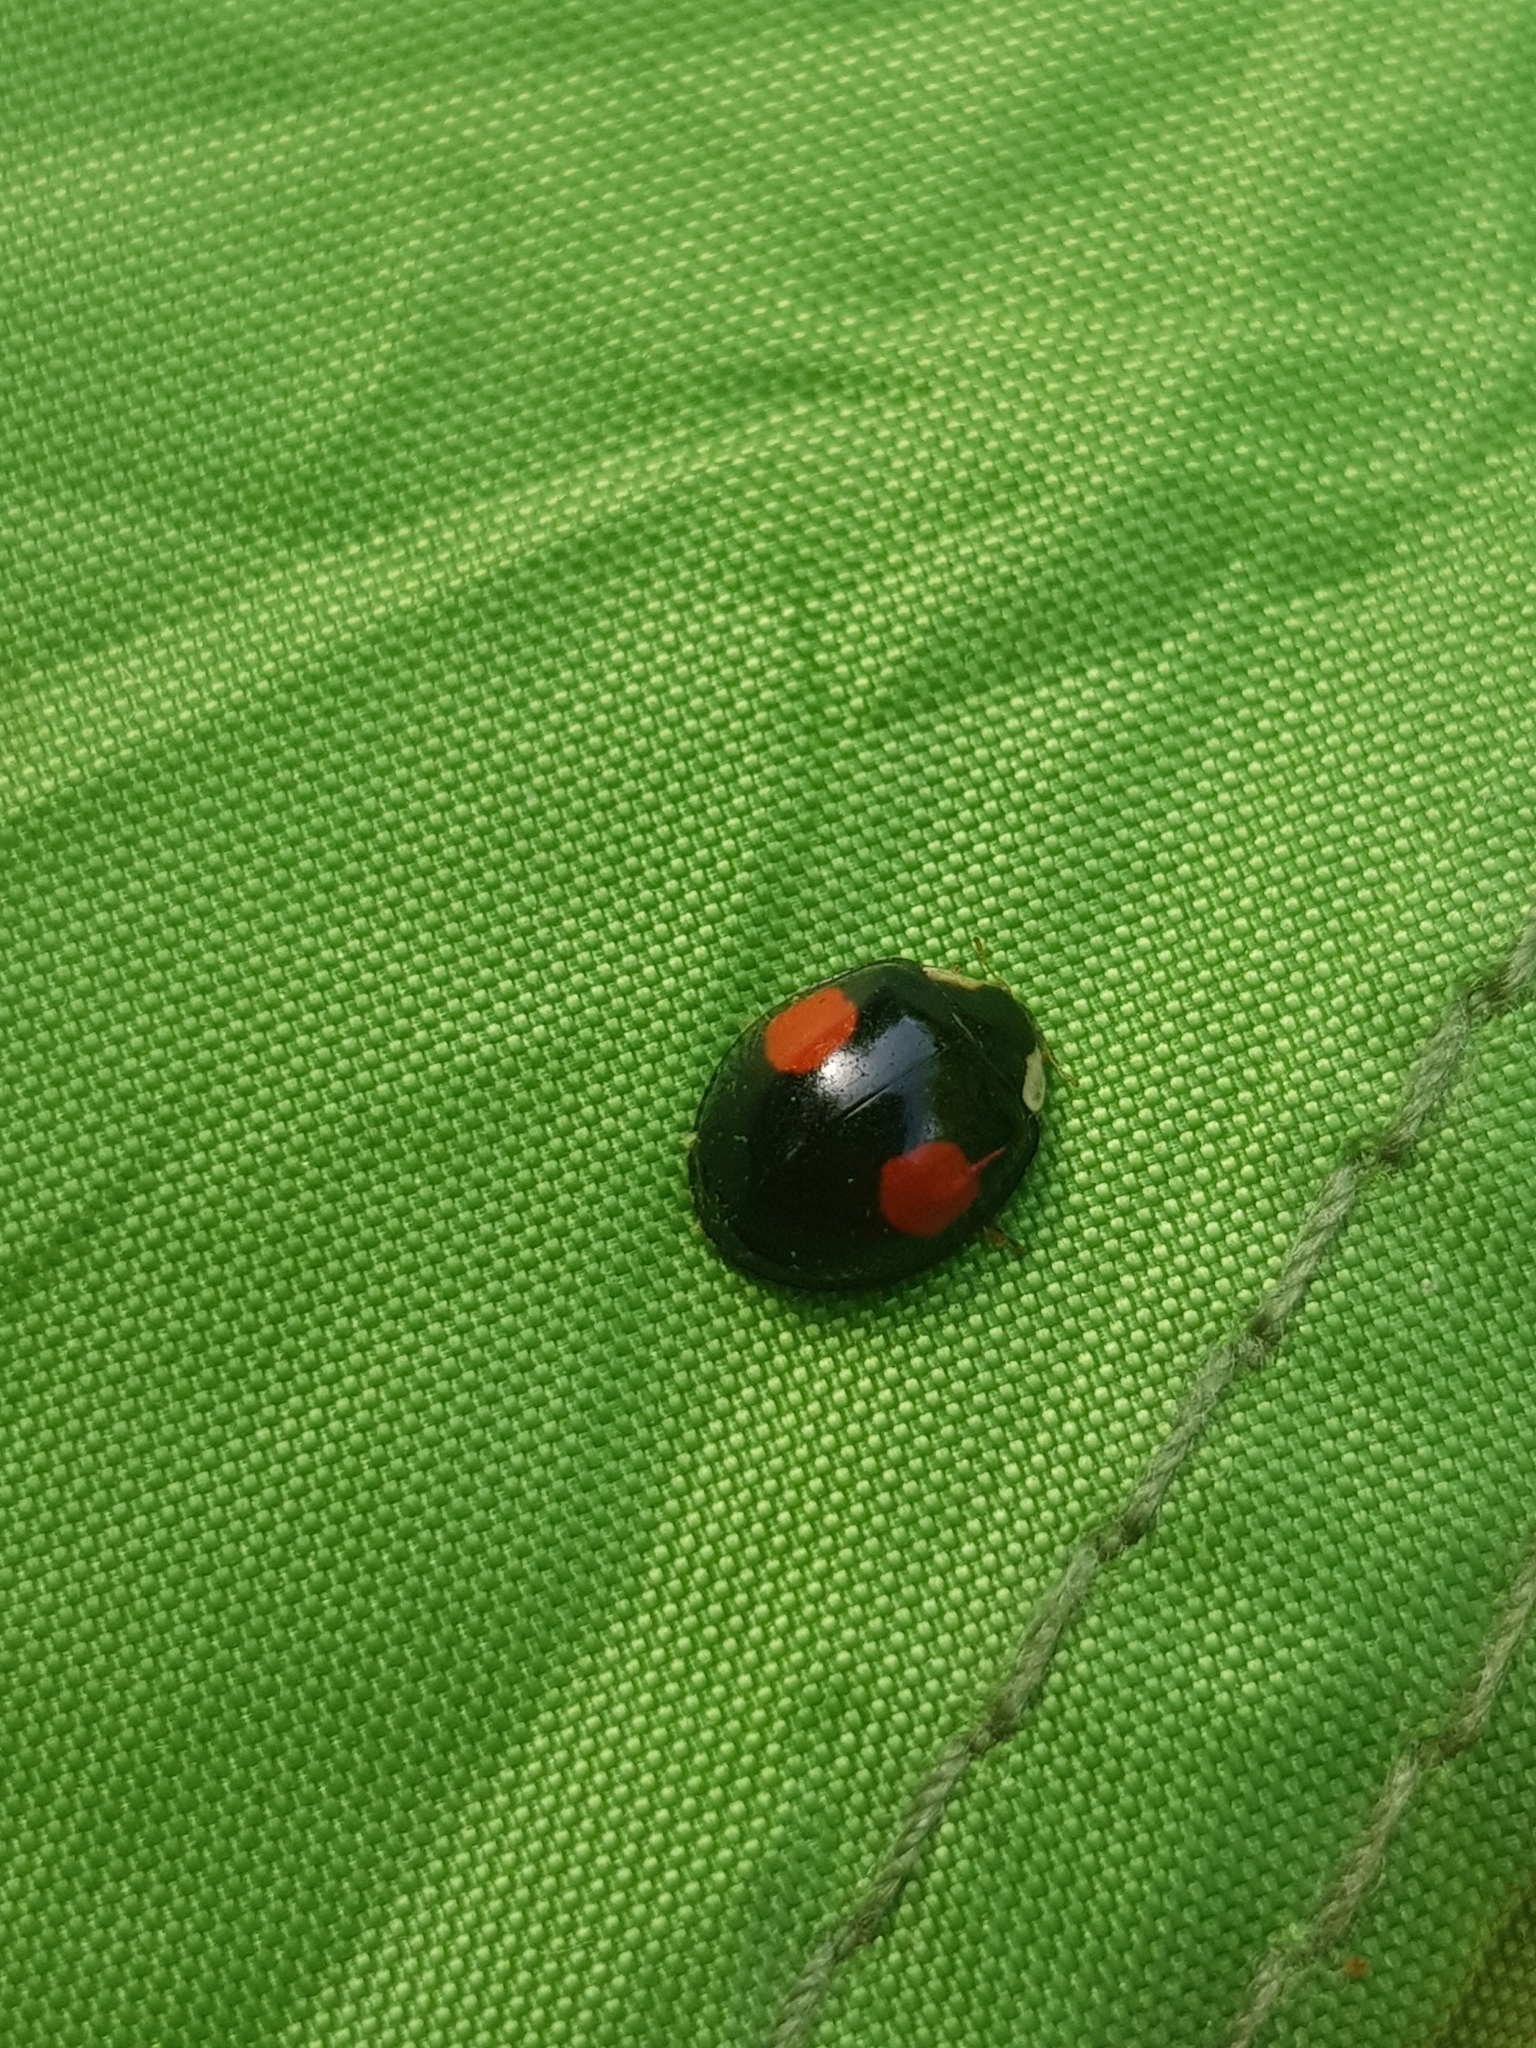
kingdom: Animalia
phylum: Arthropoda
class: Insecta
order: Coleoptera
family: Coccinellidae
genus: Harmonia
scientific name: Harmonia axyridis
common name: Harlequin ladybird
